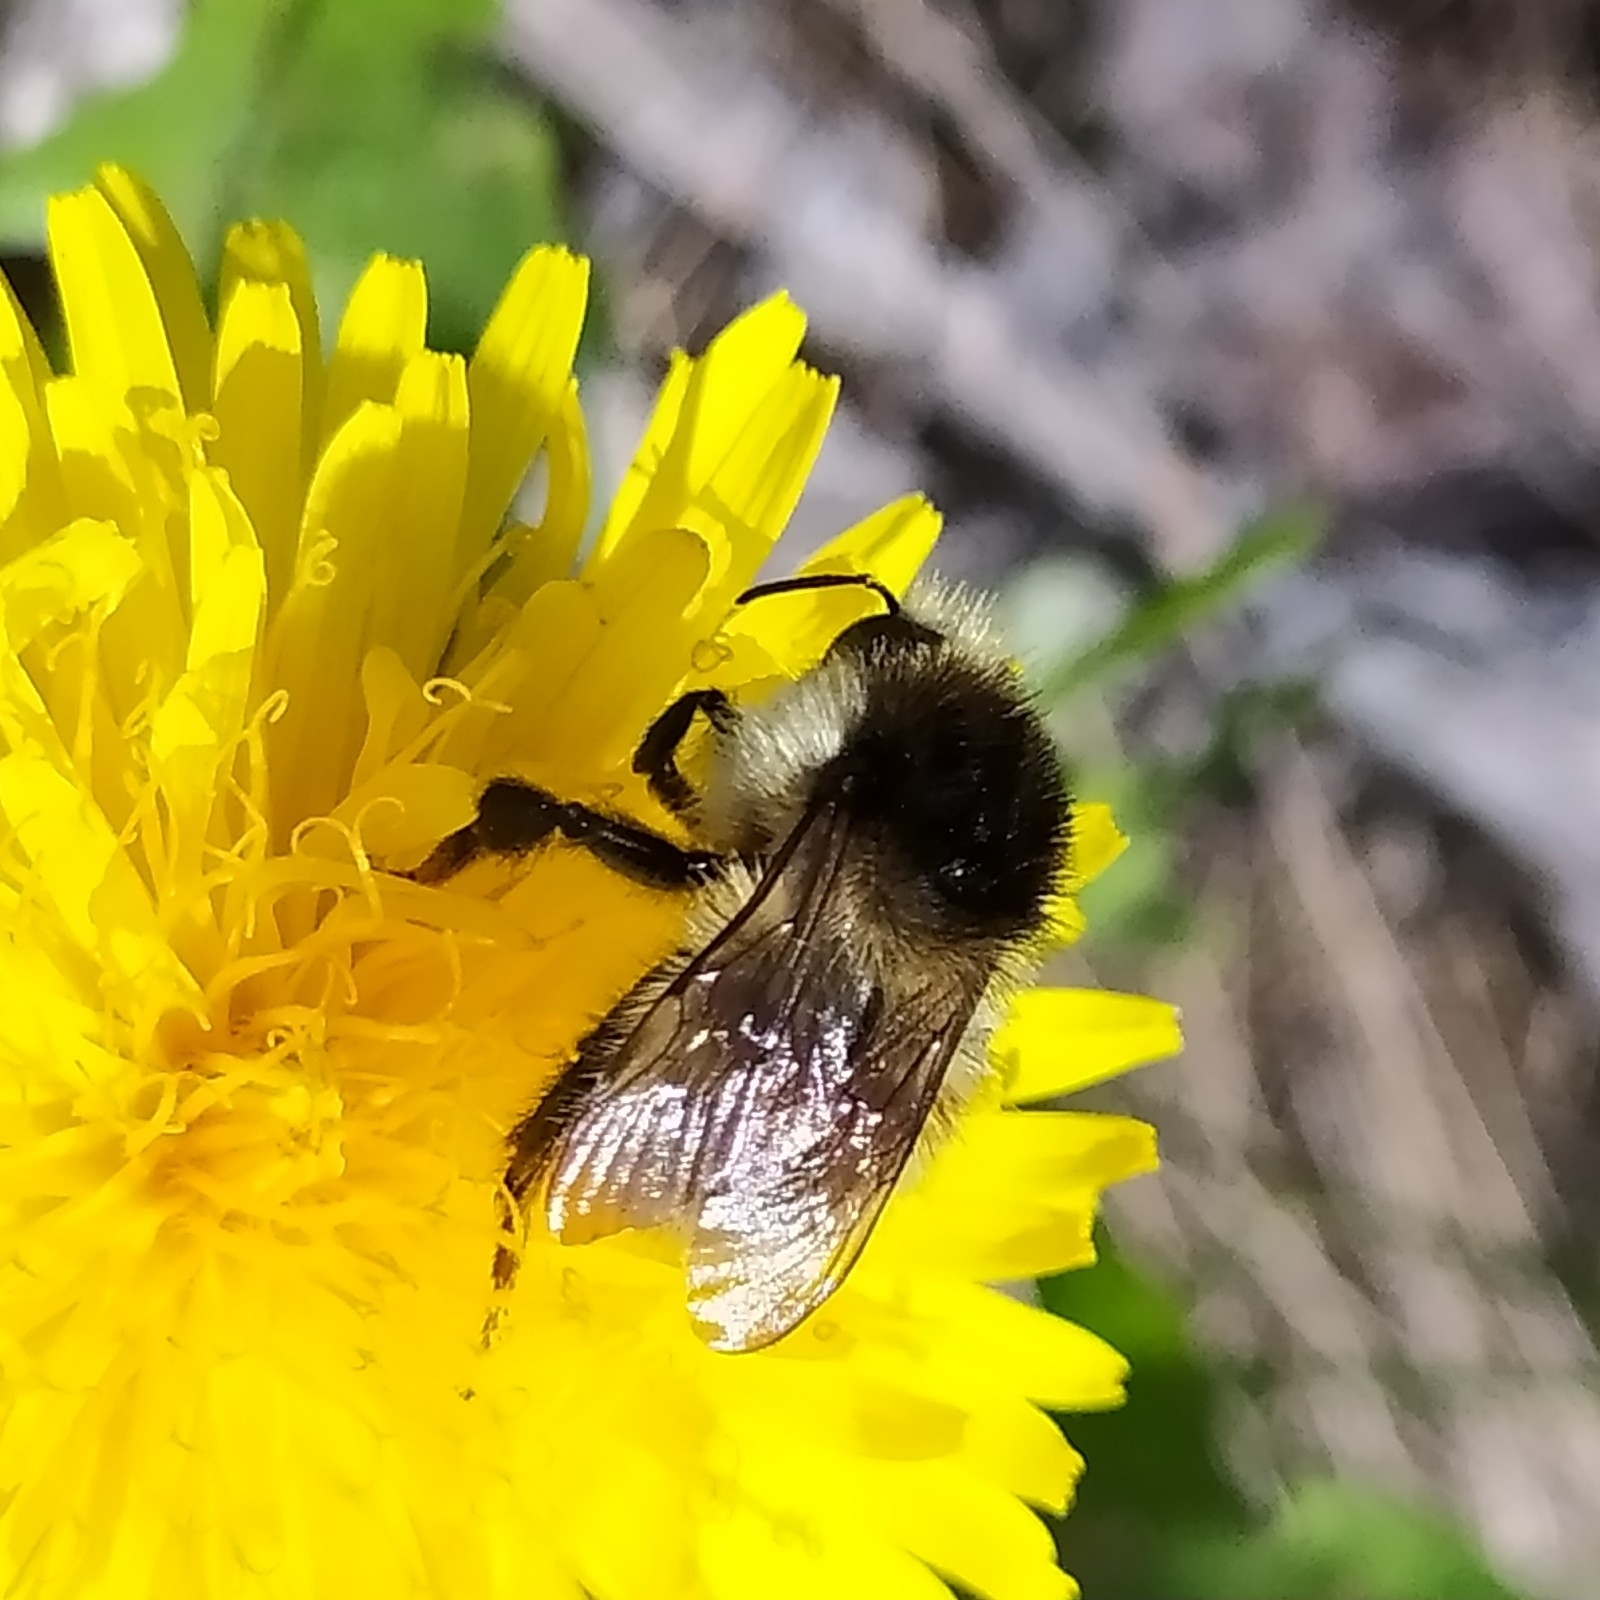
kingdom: Animalia
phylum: Arthropoda
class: Insecta
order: Hymenoptera
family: Apidae
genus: Bombus
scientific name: Bombus humilis
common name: Brown-banded carder-bee
